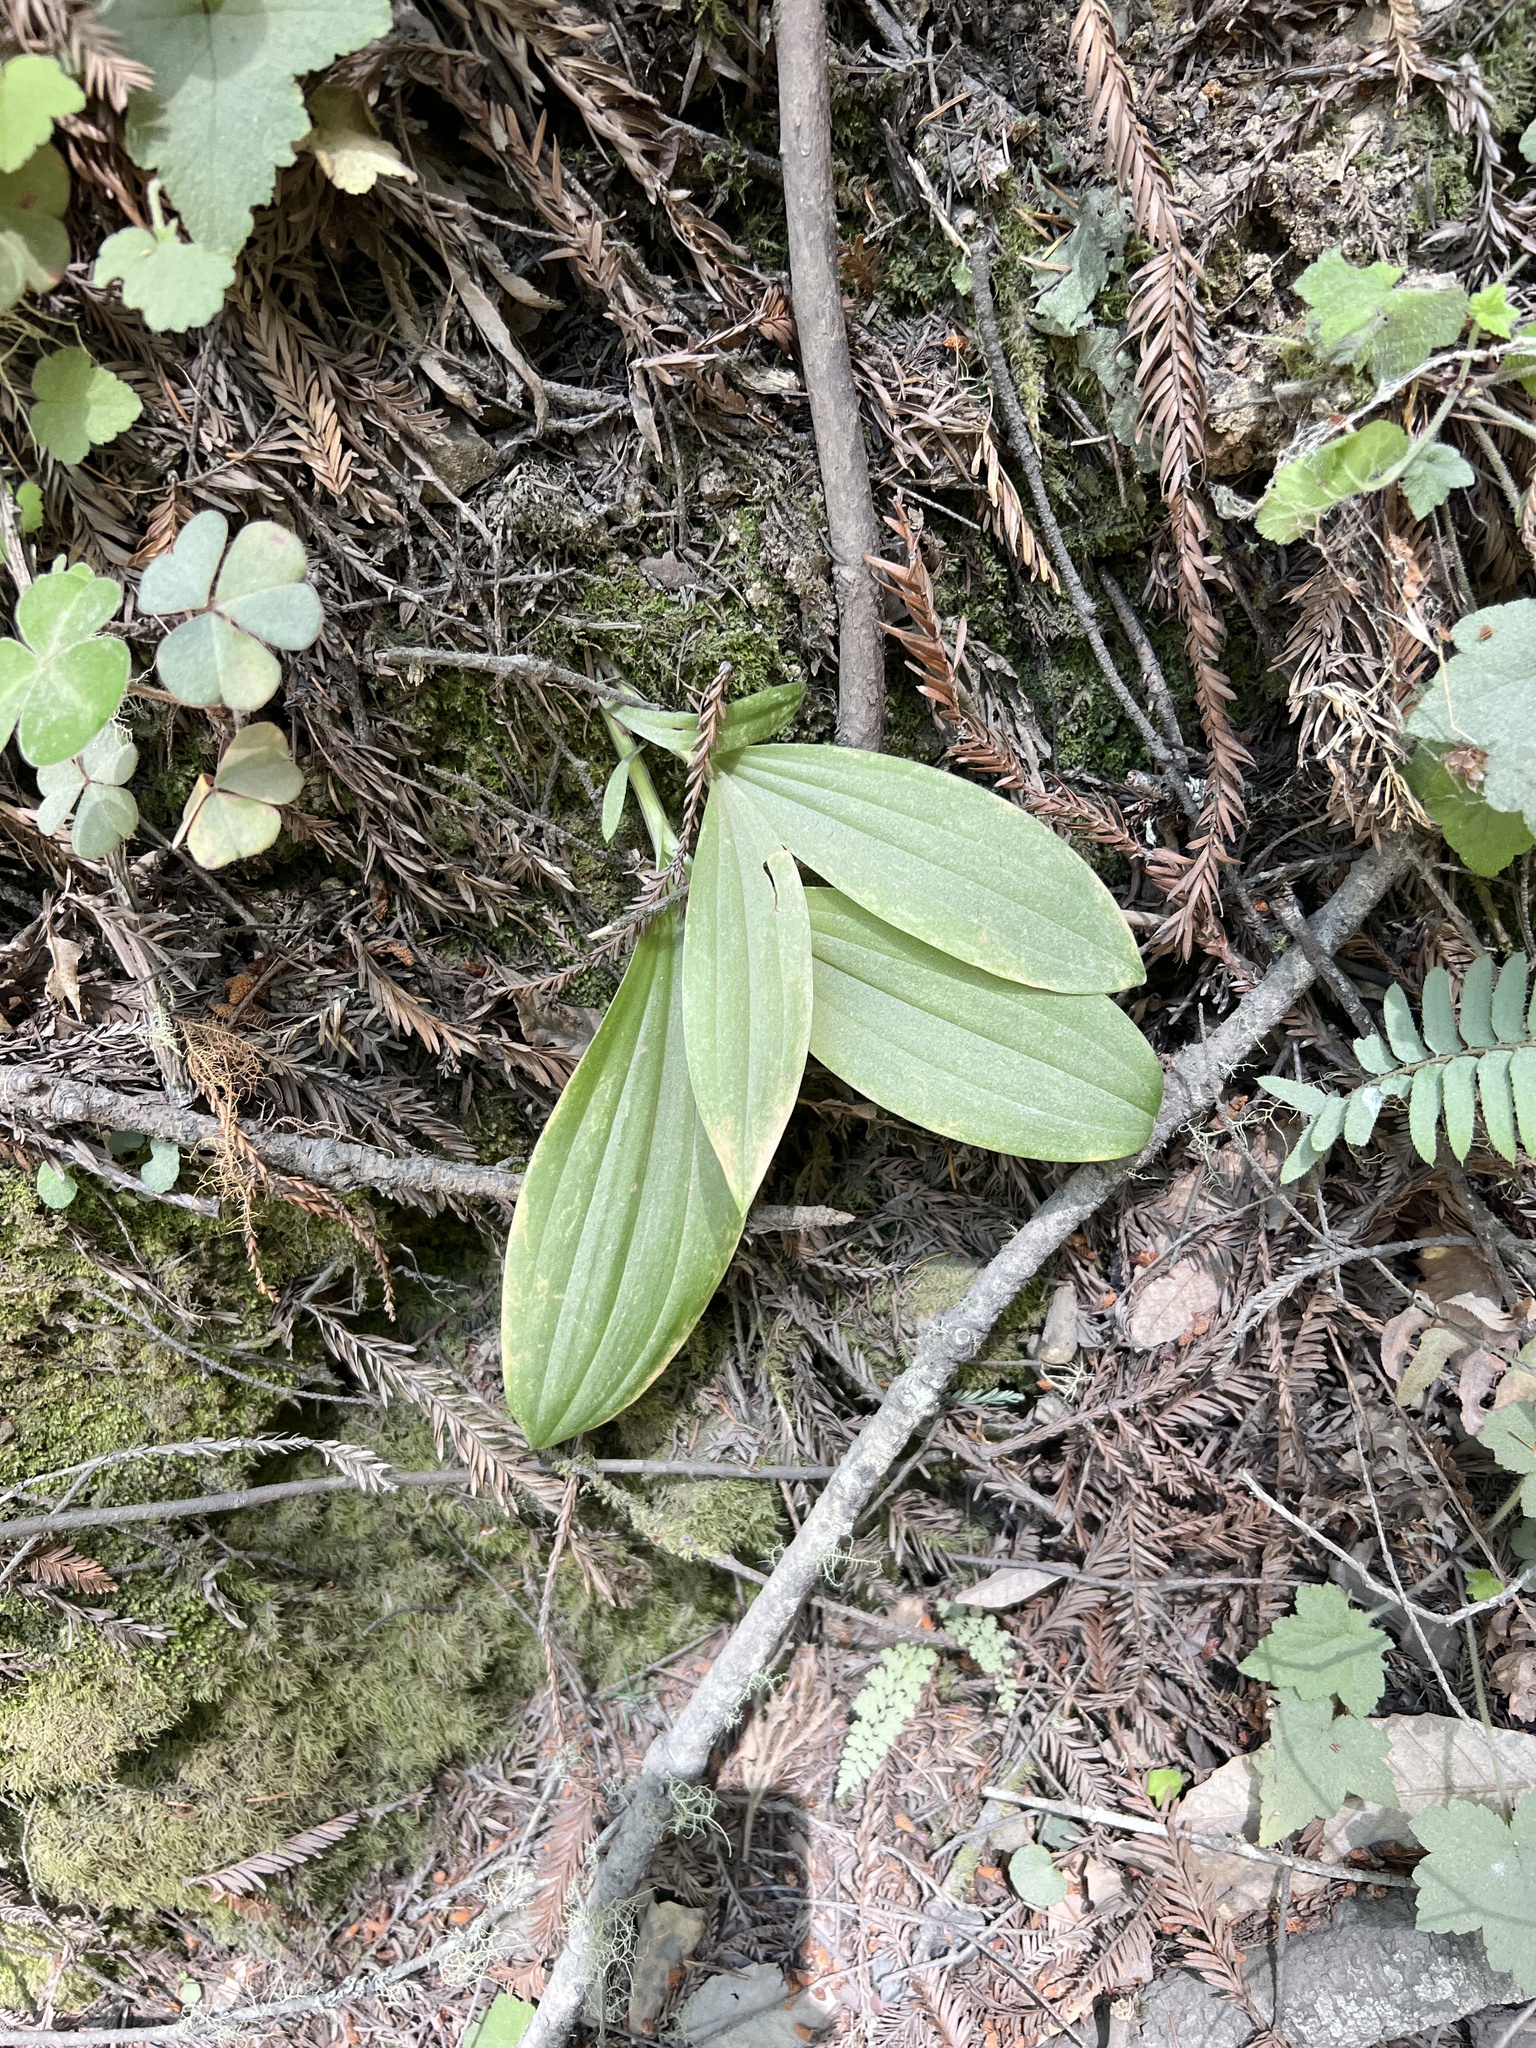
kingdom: Plantae
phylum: Tracheophyta
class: Liliopsida
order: Liliales
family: Liliaceae
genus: Scoliopus
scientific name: Scoliopus bigelovii
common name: Foetid adder's-tongue
